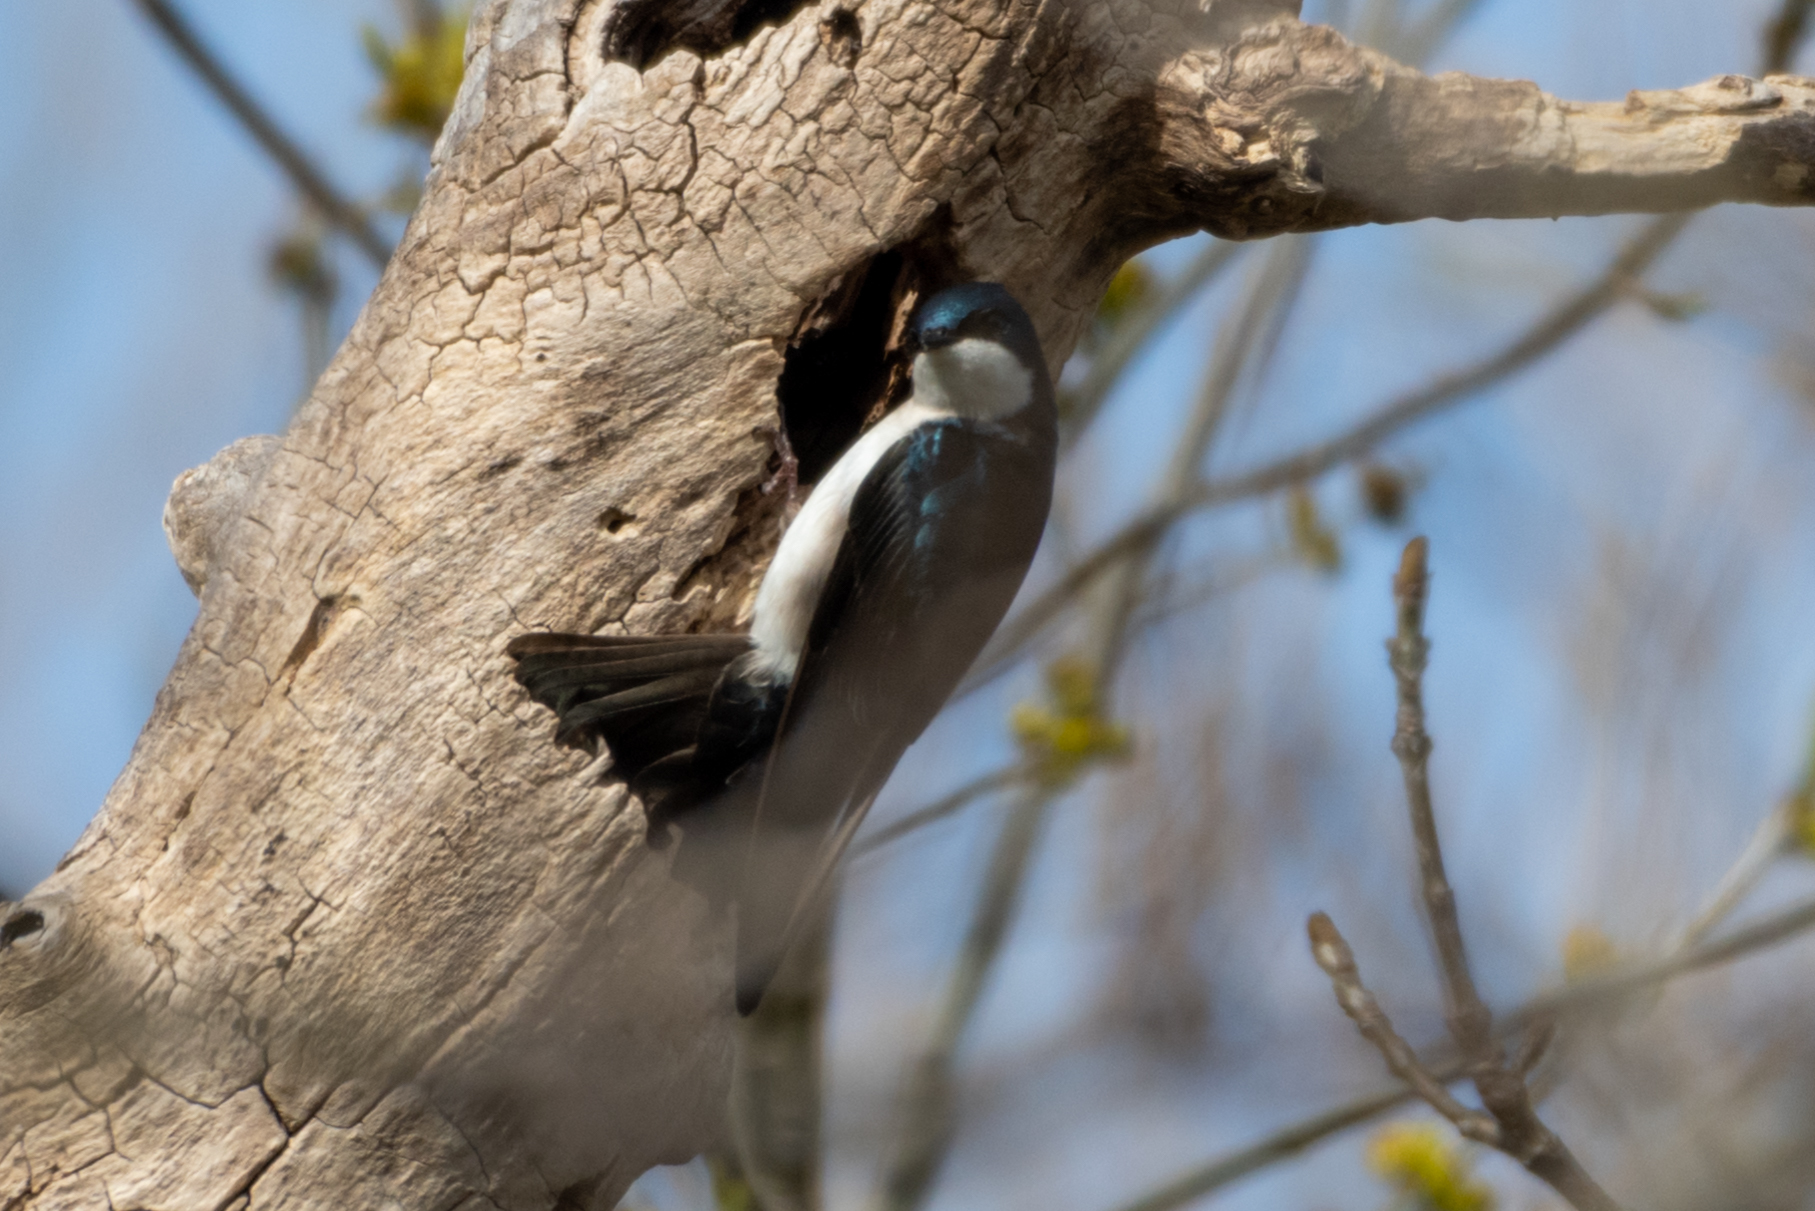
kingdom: Animalia
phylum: Chordata
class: Aves
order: Passeriformes
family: Hirundinidae
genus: Tachycineta
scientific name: Tachycineta bicolor
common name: Tree swallow
